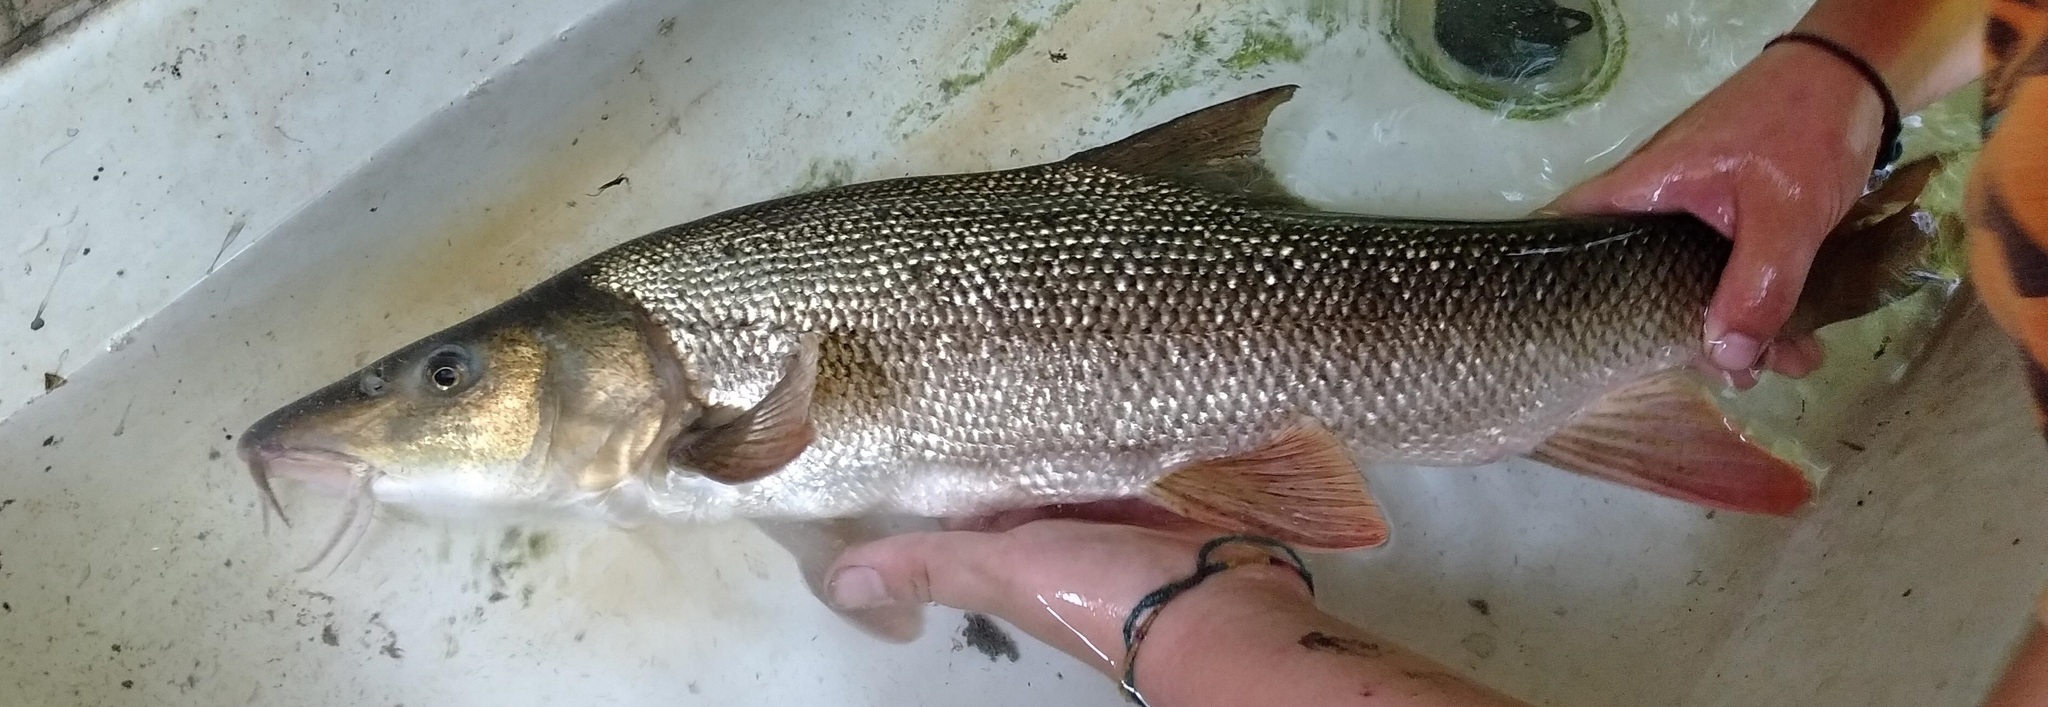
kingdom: Animalia
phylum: Chordata
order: Cypriniformes
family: Cyprinidae
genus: Barbus
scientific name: Barbus barbus
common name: Barbel
